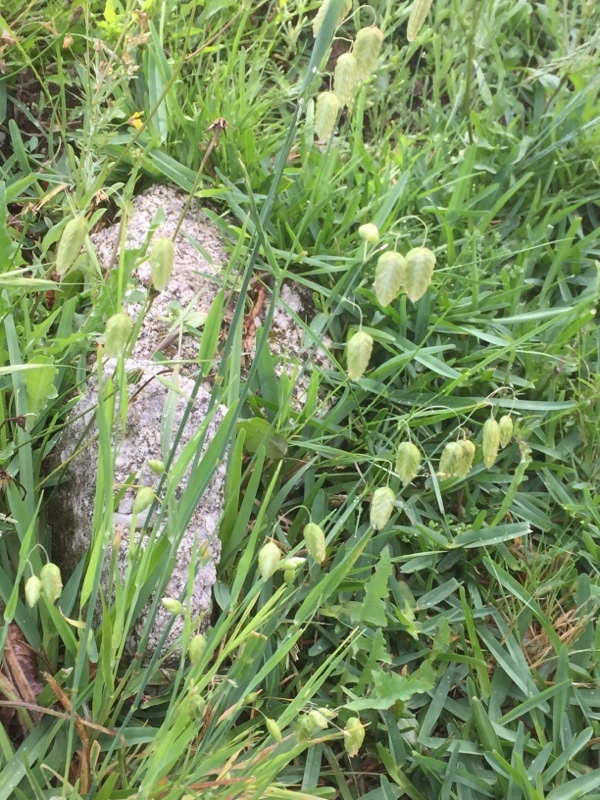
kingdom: Plantae
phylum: Tracheophyta
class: Liliopsida
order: Poales
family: Poaceae
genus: Briza
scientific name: Briza maxima
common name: Big quakinggrass
